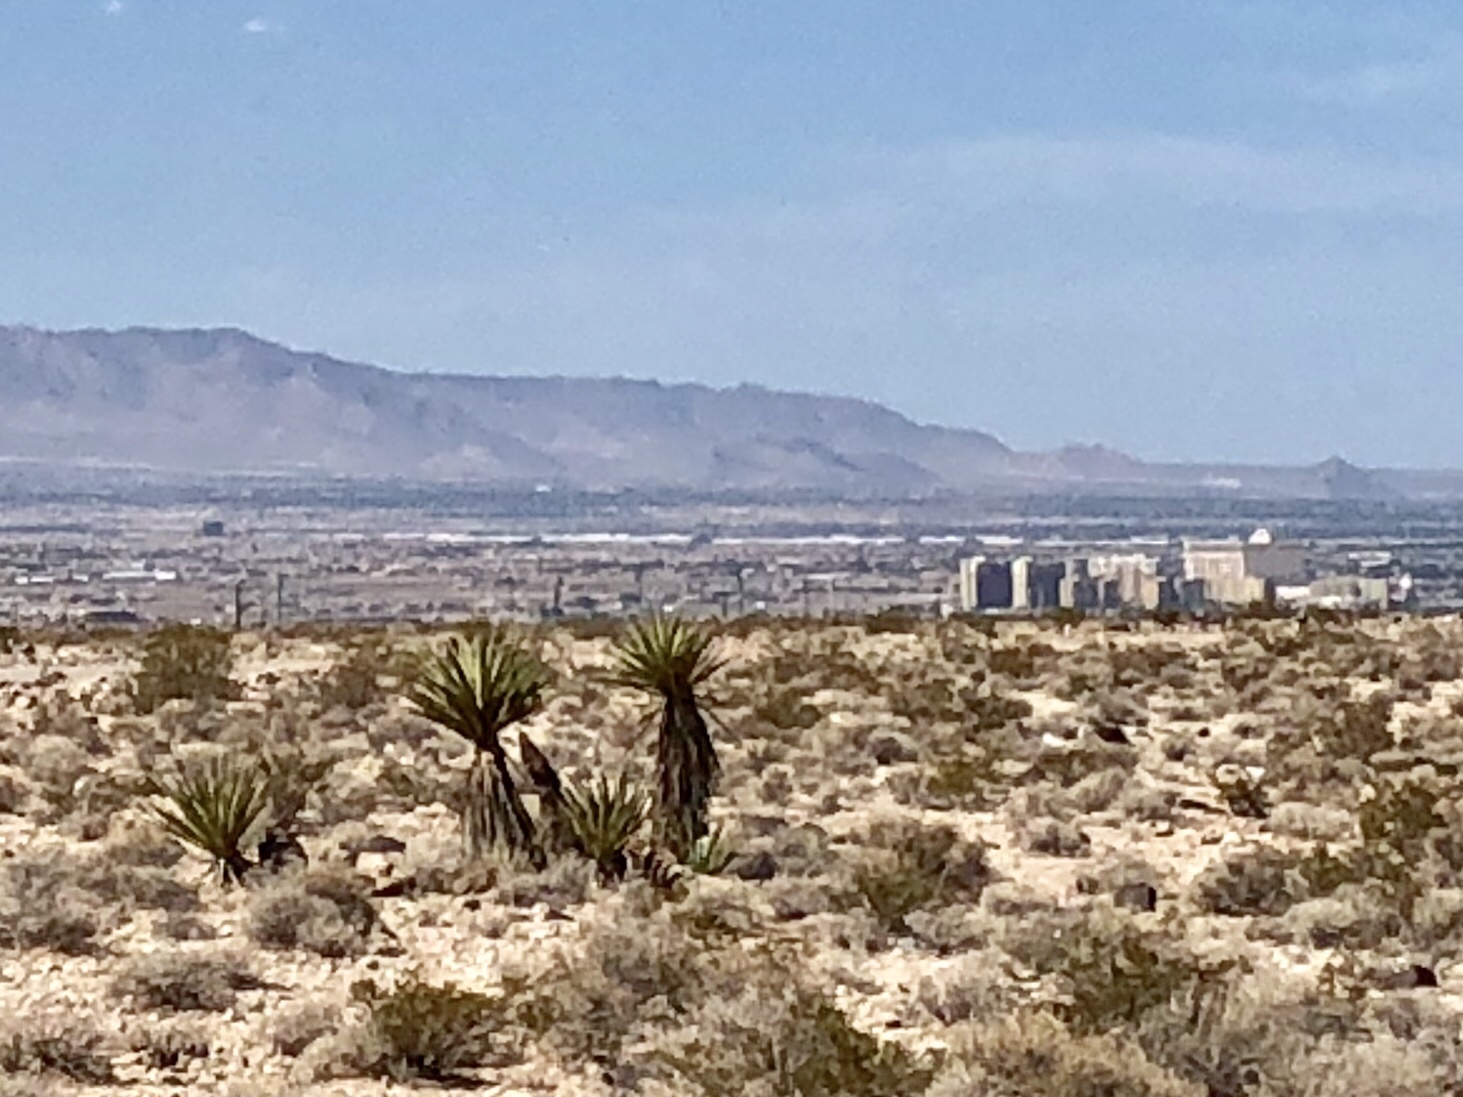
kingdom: Plantae
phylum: Tracheophyta
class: Liliopsida
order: Asparagales
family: Asparagaceae
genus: Yucca
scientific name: Yucca schidigera
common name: Mojave yucca
